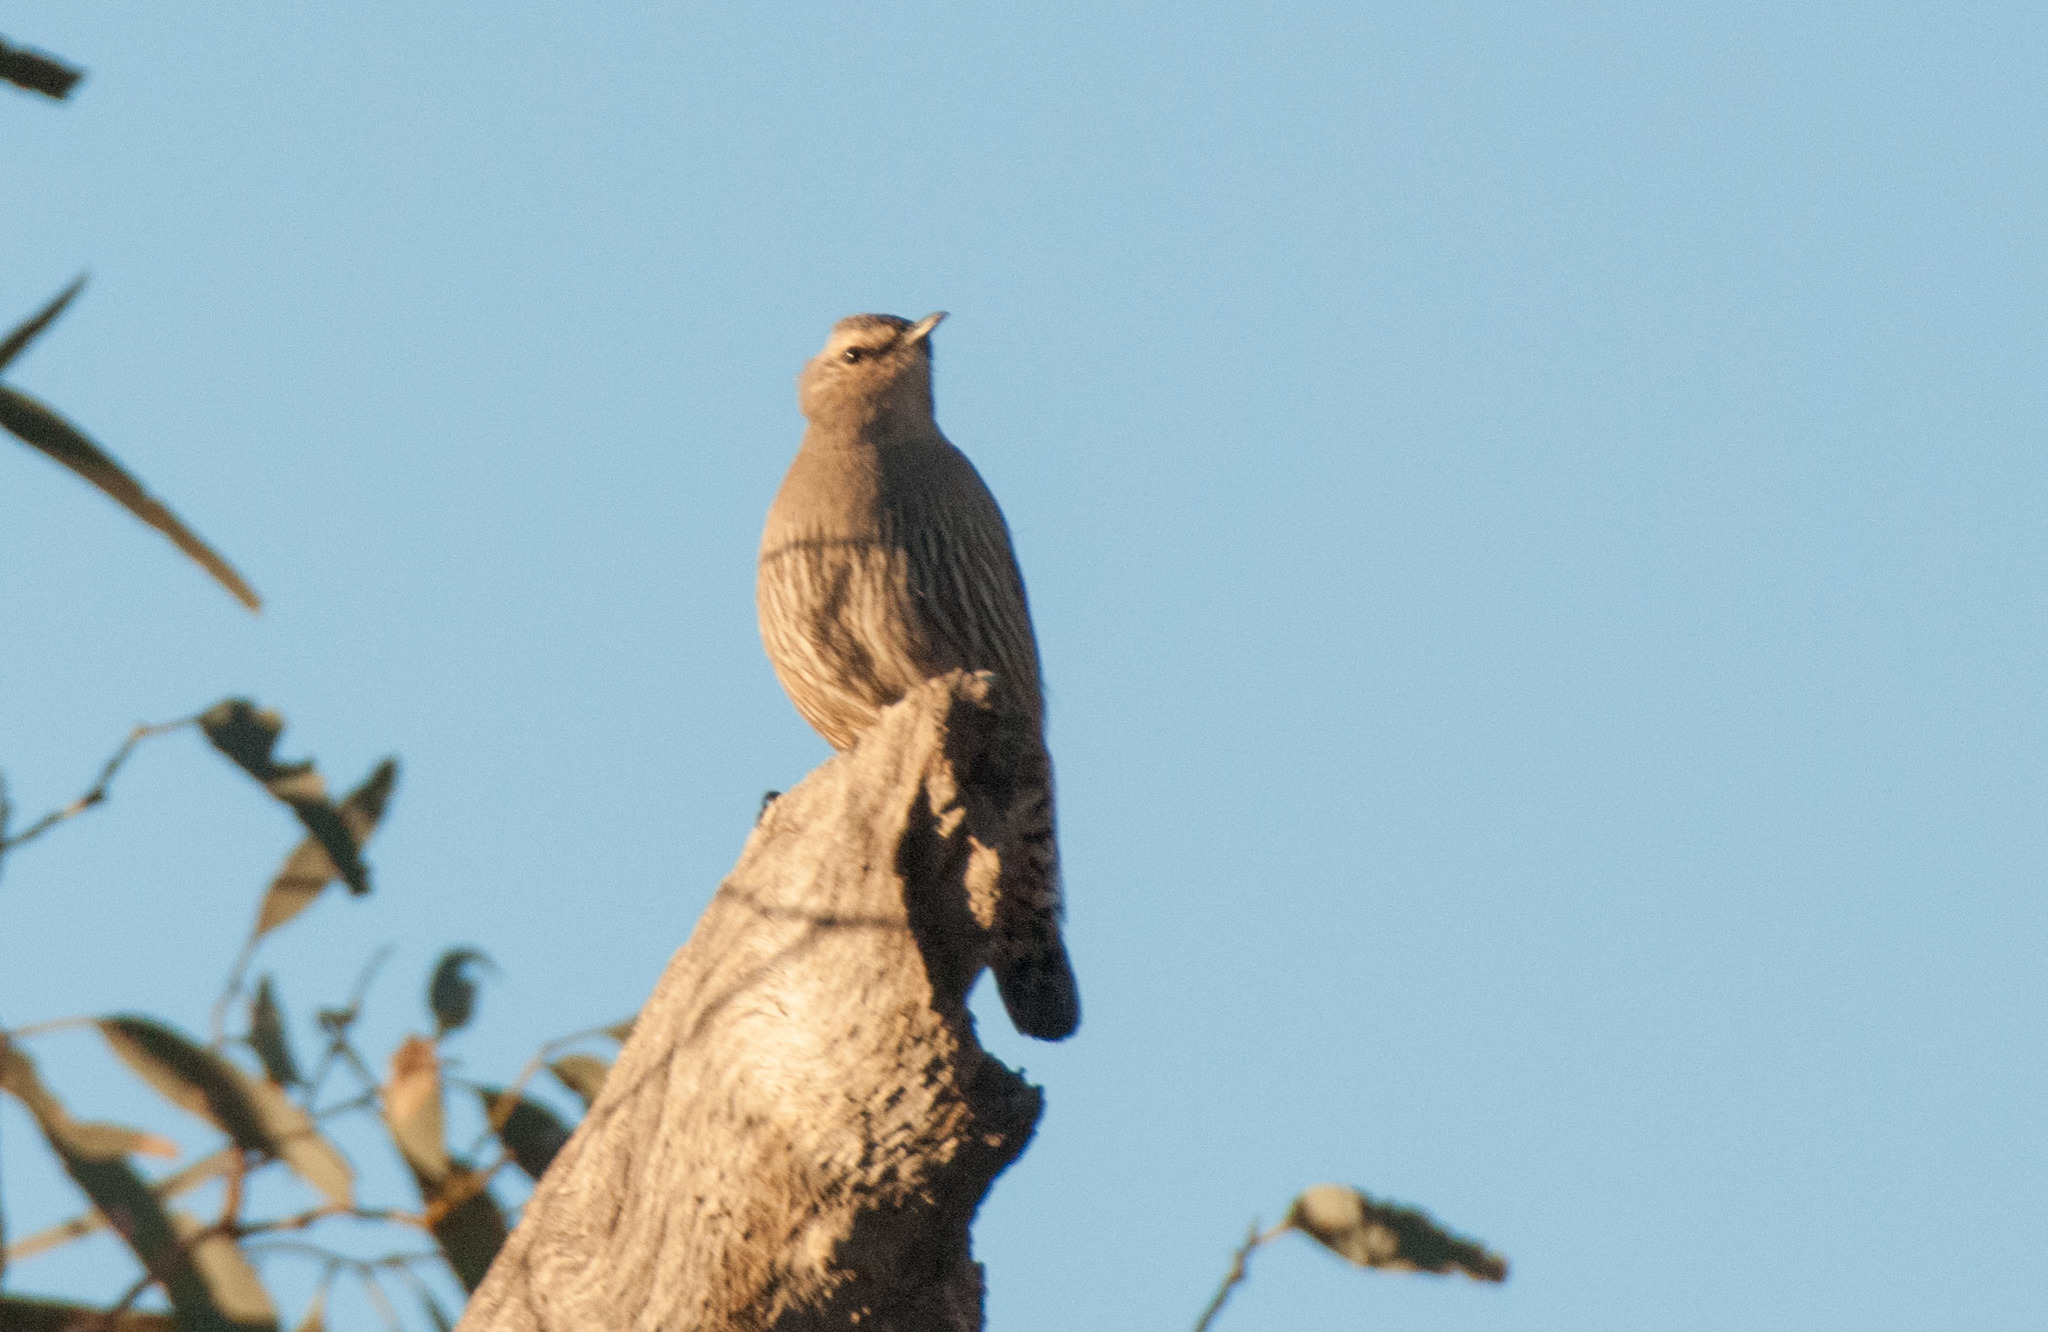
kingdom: Animalia
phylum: Chordata
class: Aves
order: Passeriformes
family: Climacteridae
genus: Climacteris
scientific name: Climacteris picumnus
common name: Brown treecreeper
